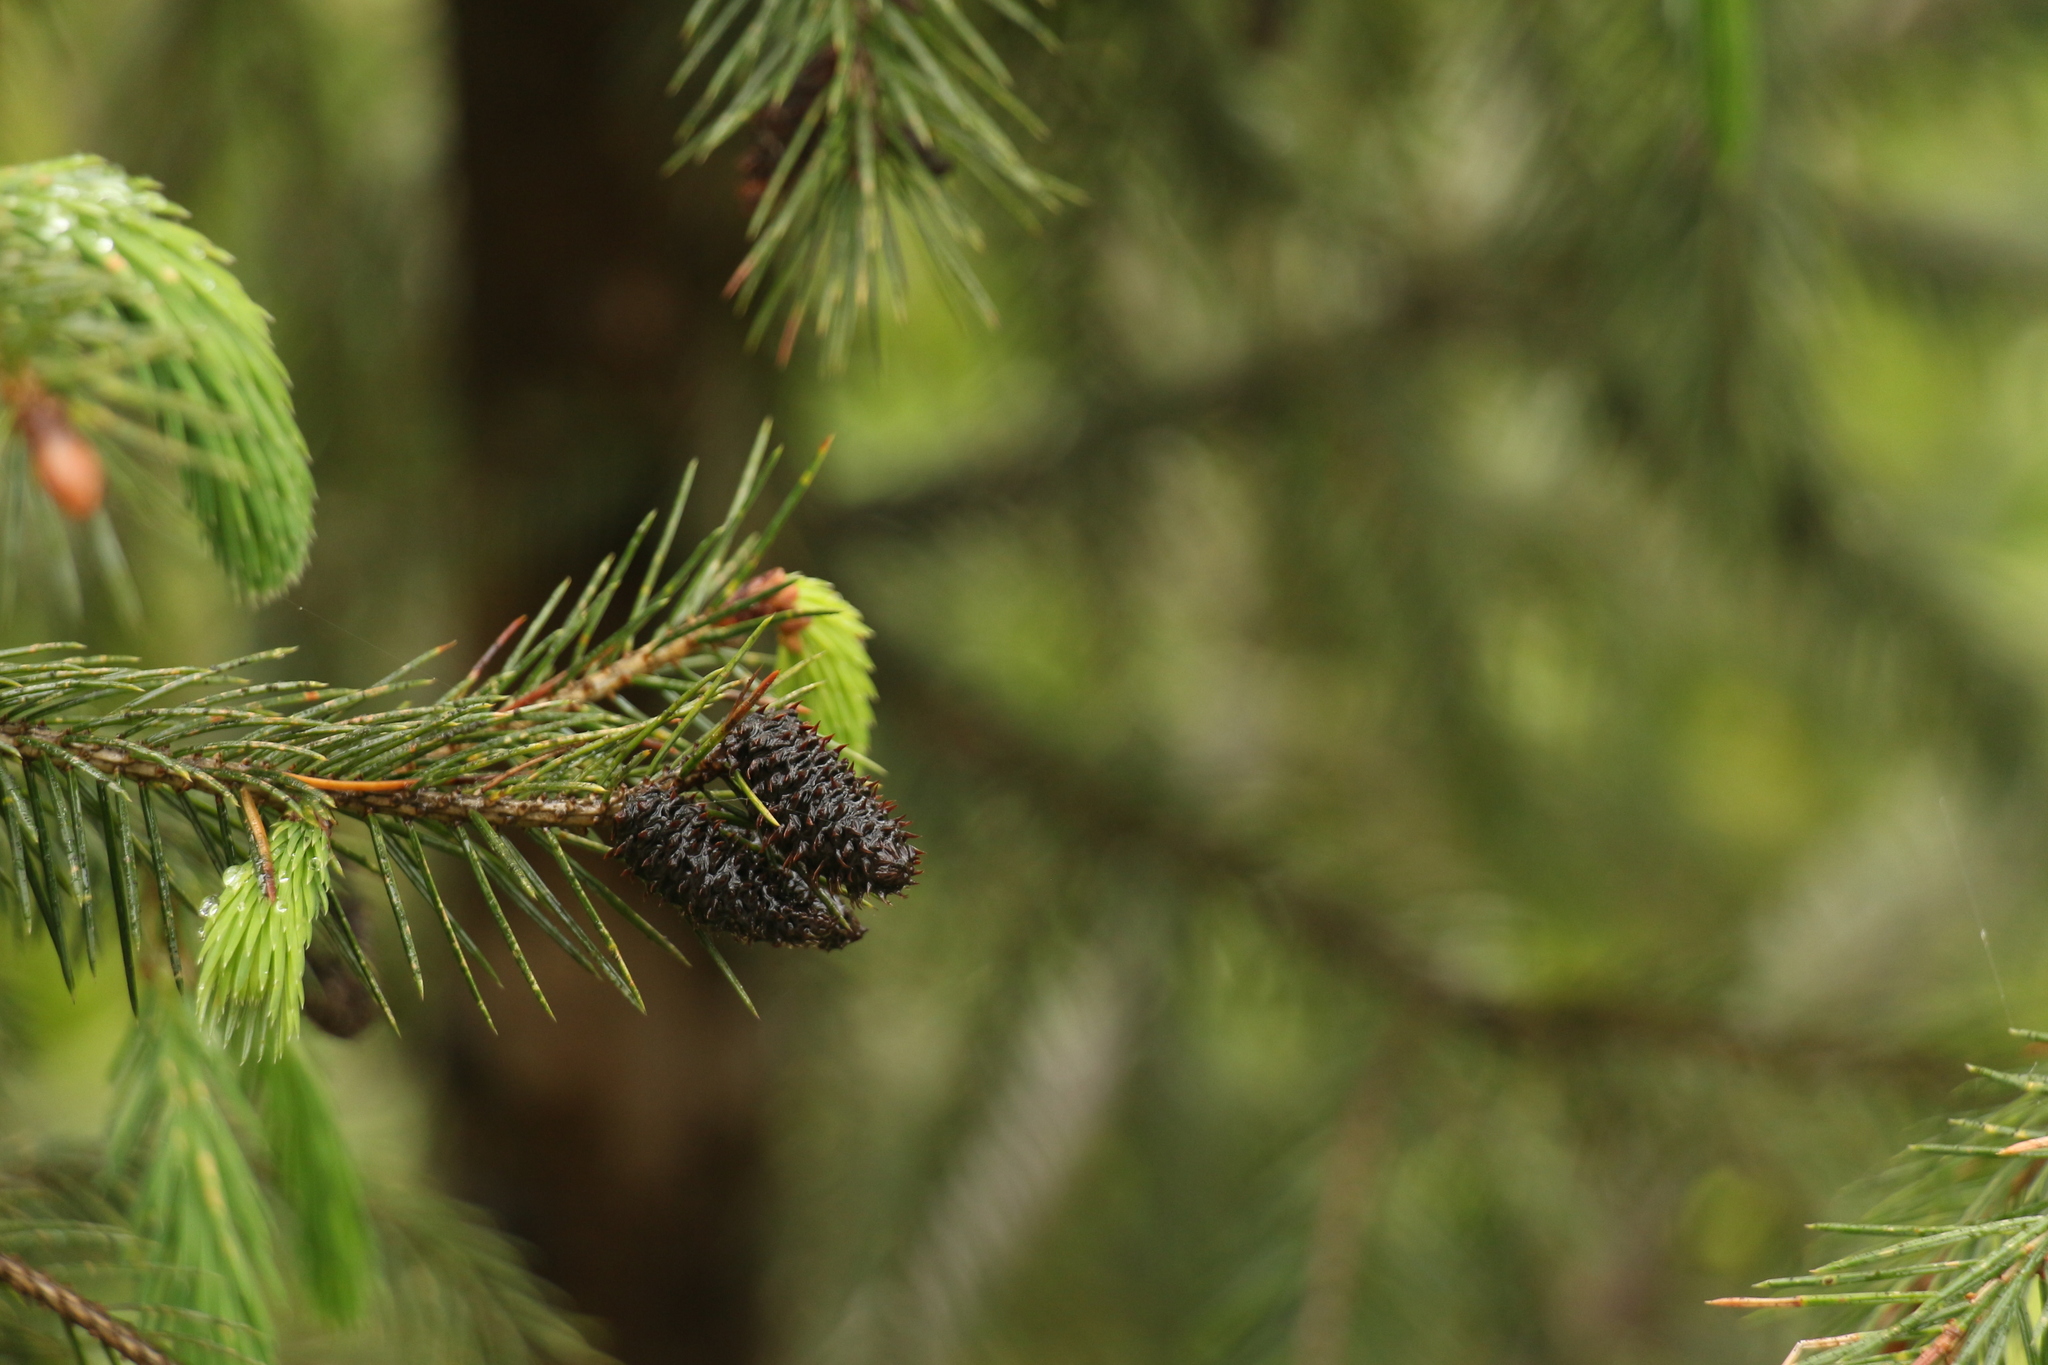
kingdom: Plantae
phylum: Tracheophyta
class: Pinopsida
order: Pinales
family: Pinaceae
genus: Picea
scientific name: Picea spinulosa
